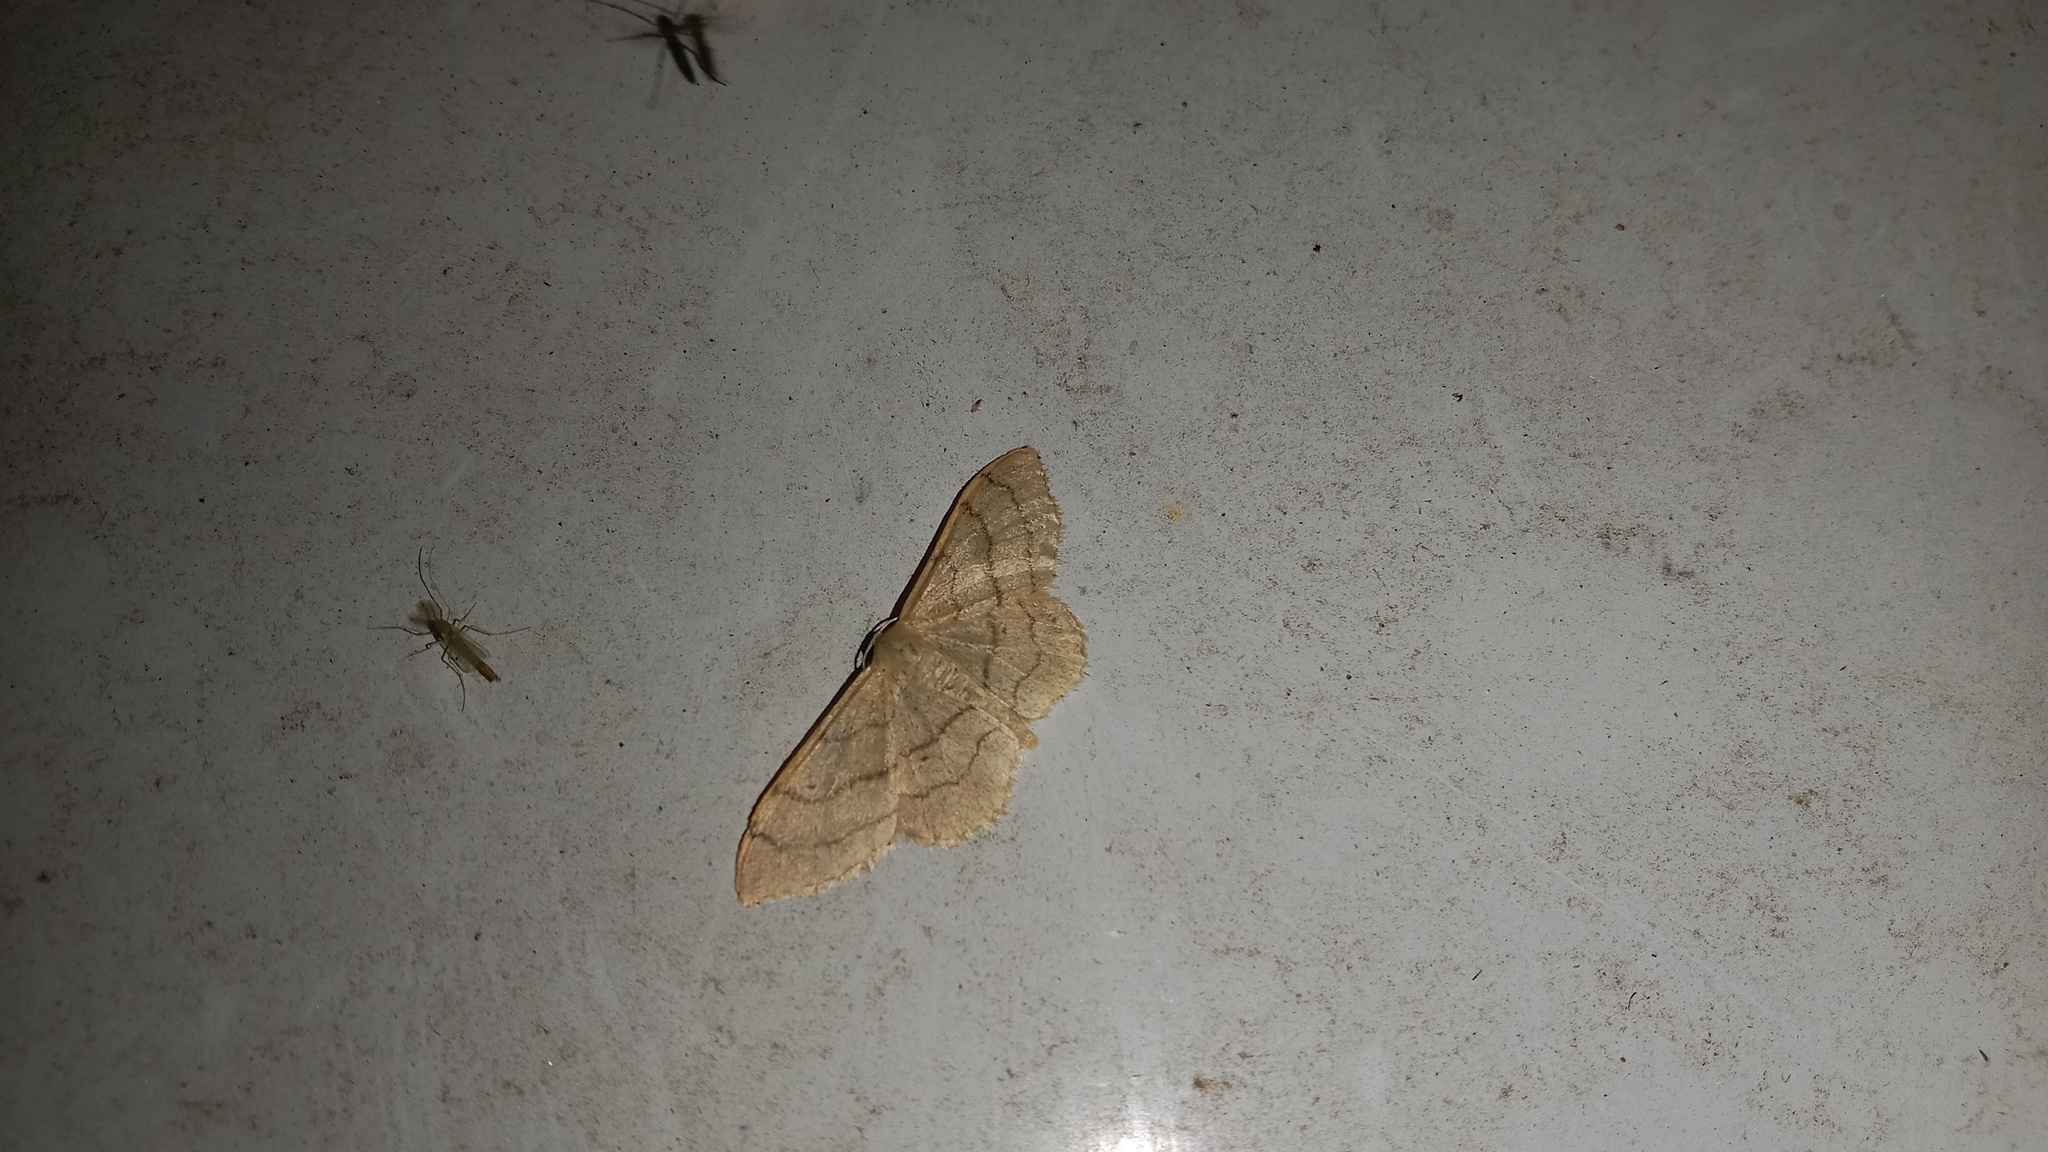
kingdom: Animalia
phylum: Arthropoda
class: Insecta
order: Lepidoptera
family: Geometridae
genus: Idaea
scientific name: Idaea aversata
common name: Riband wave
